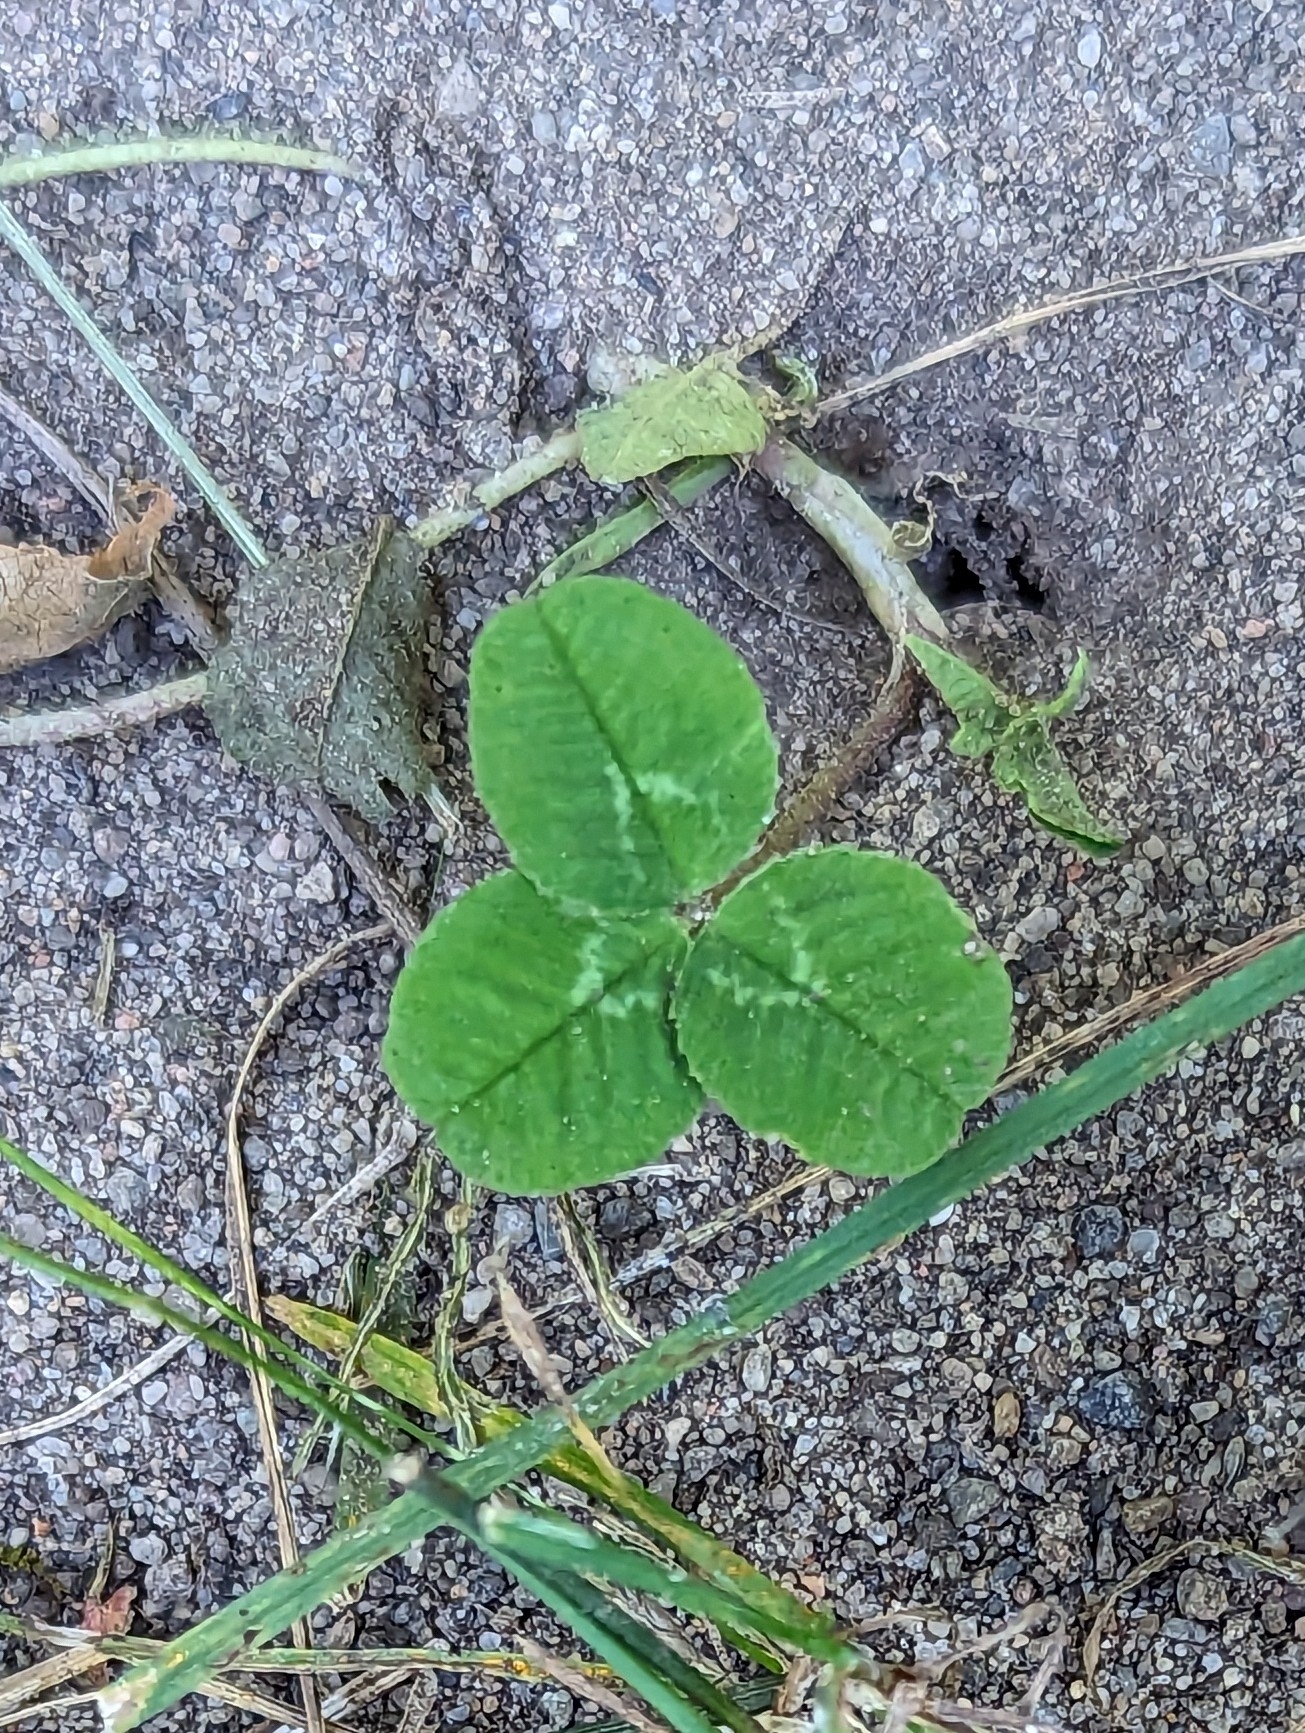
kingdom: Plantae
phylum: Tracheophyta
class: Magnoliopsida
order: Fabales
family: Fabaceae
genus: Trifolium
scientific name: Trifolium repens
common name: White clover
